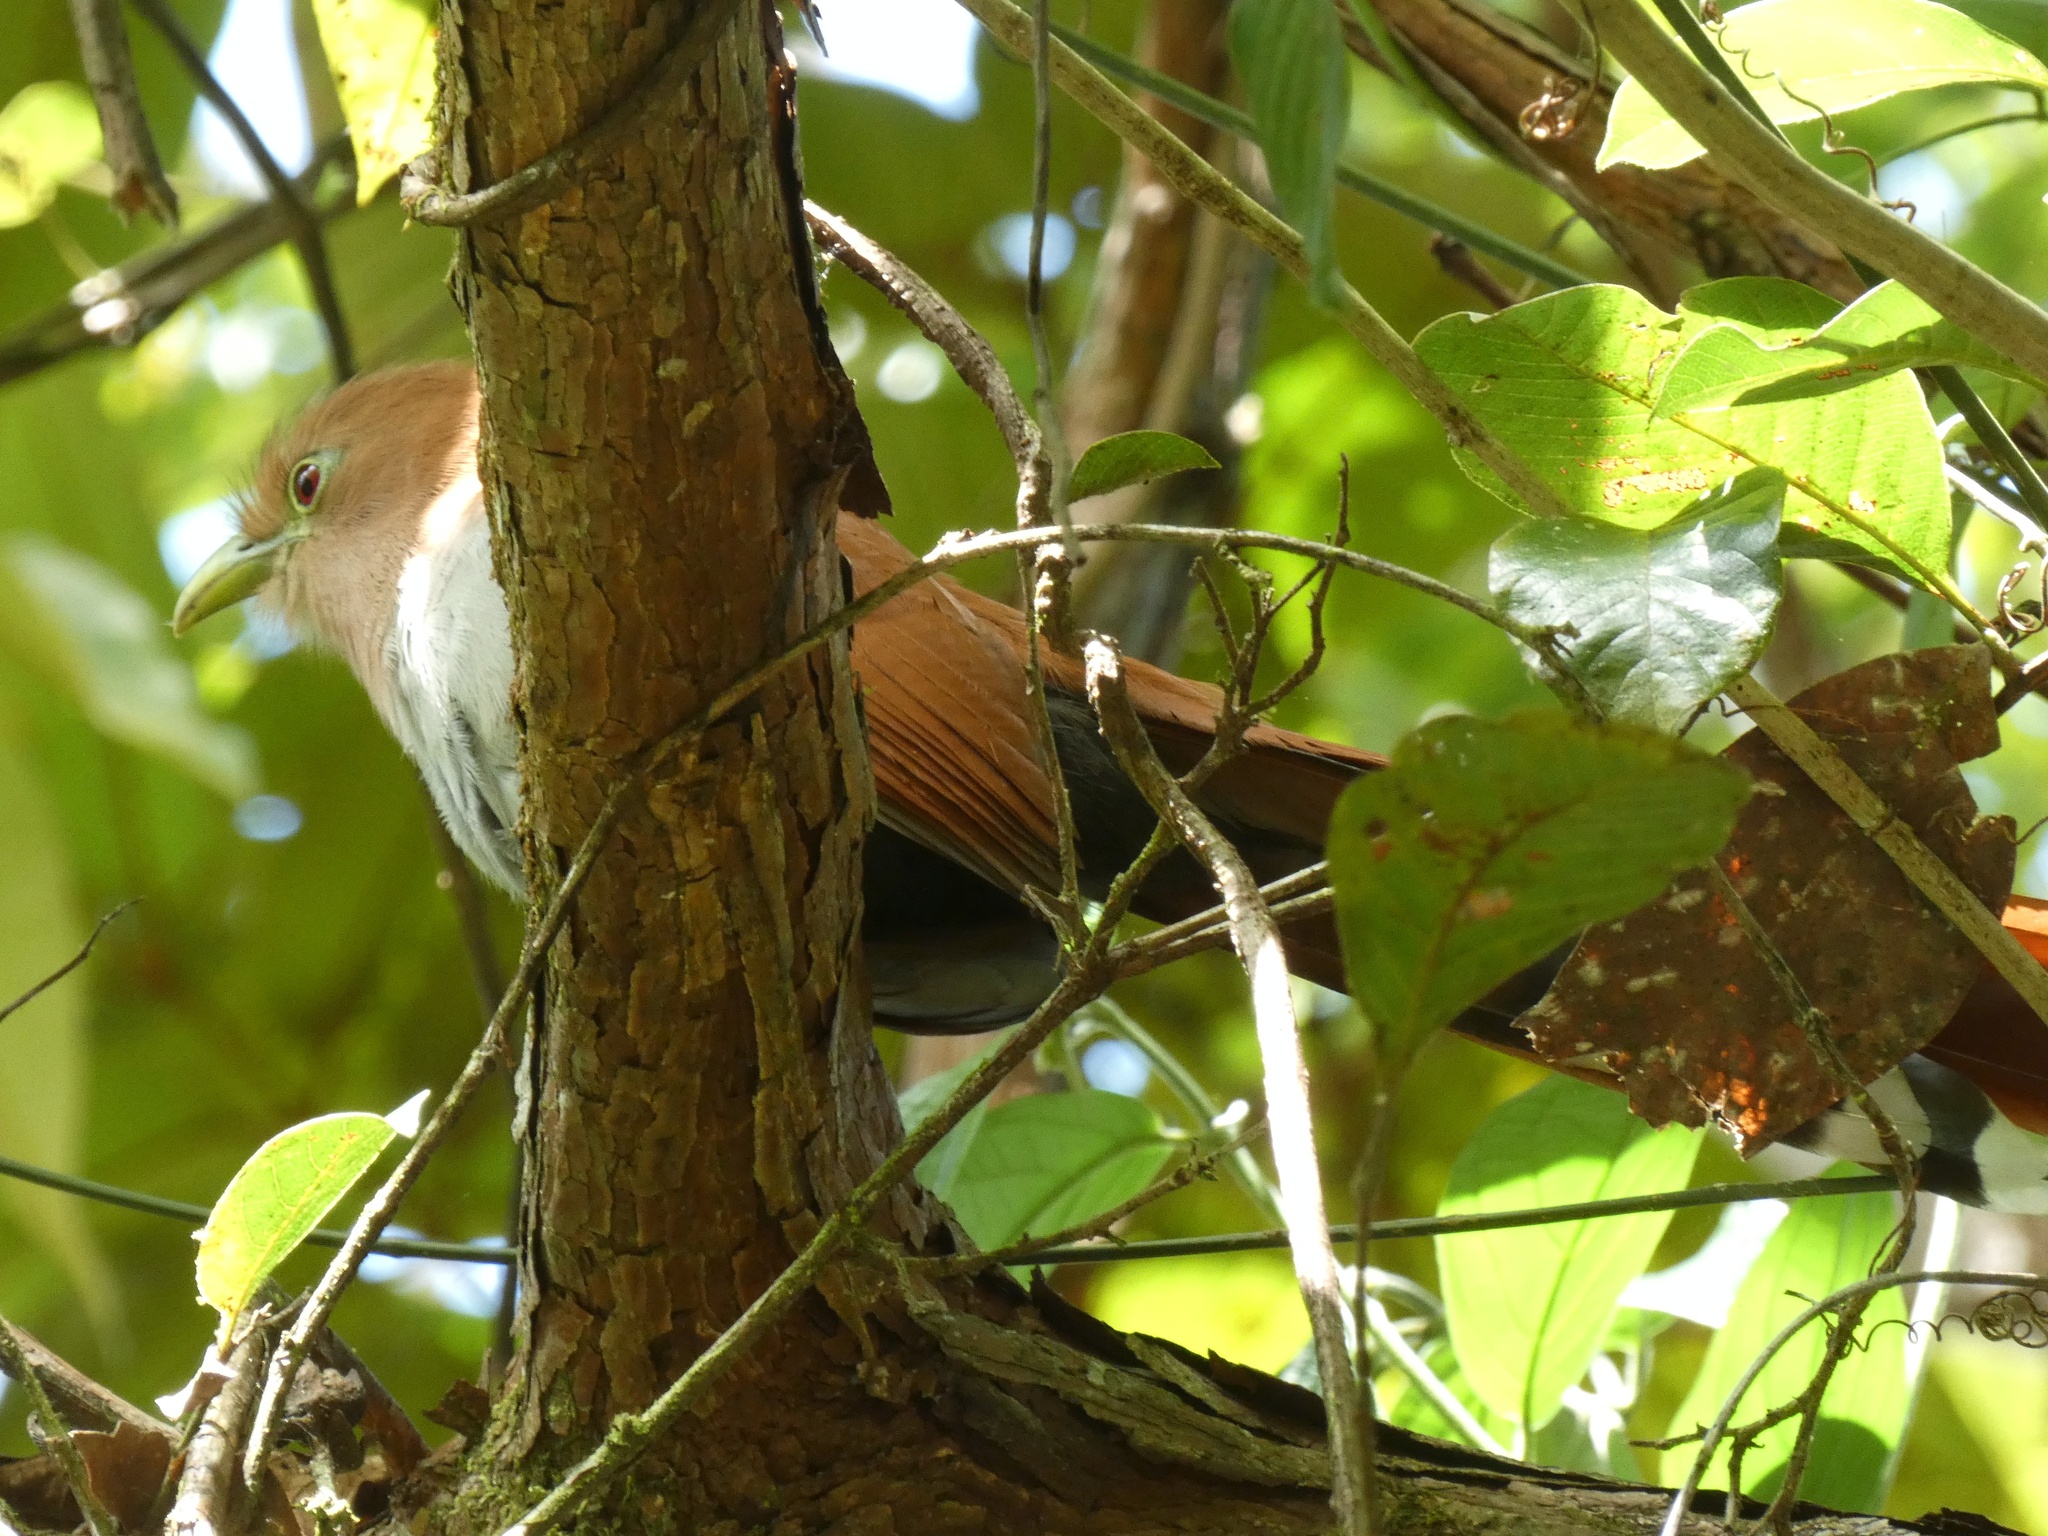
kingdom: Animalia
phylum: Chordata
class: Aves
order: Cuculiformes
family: Cuculidae
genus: Piaya
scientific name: Piaya cayana
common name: Squirrel cuckoo
